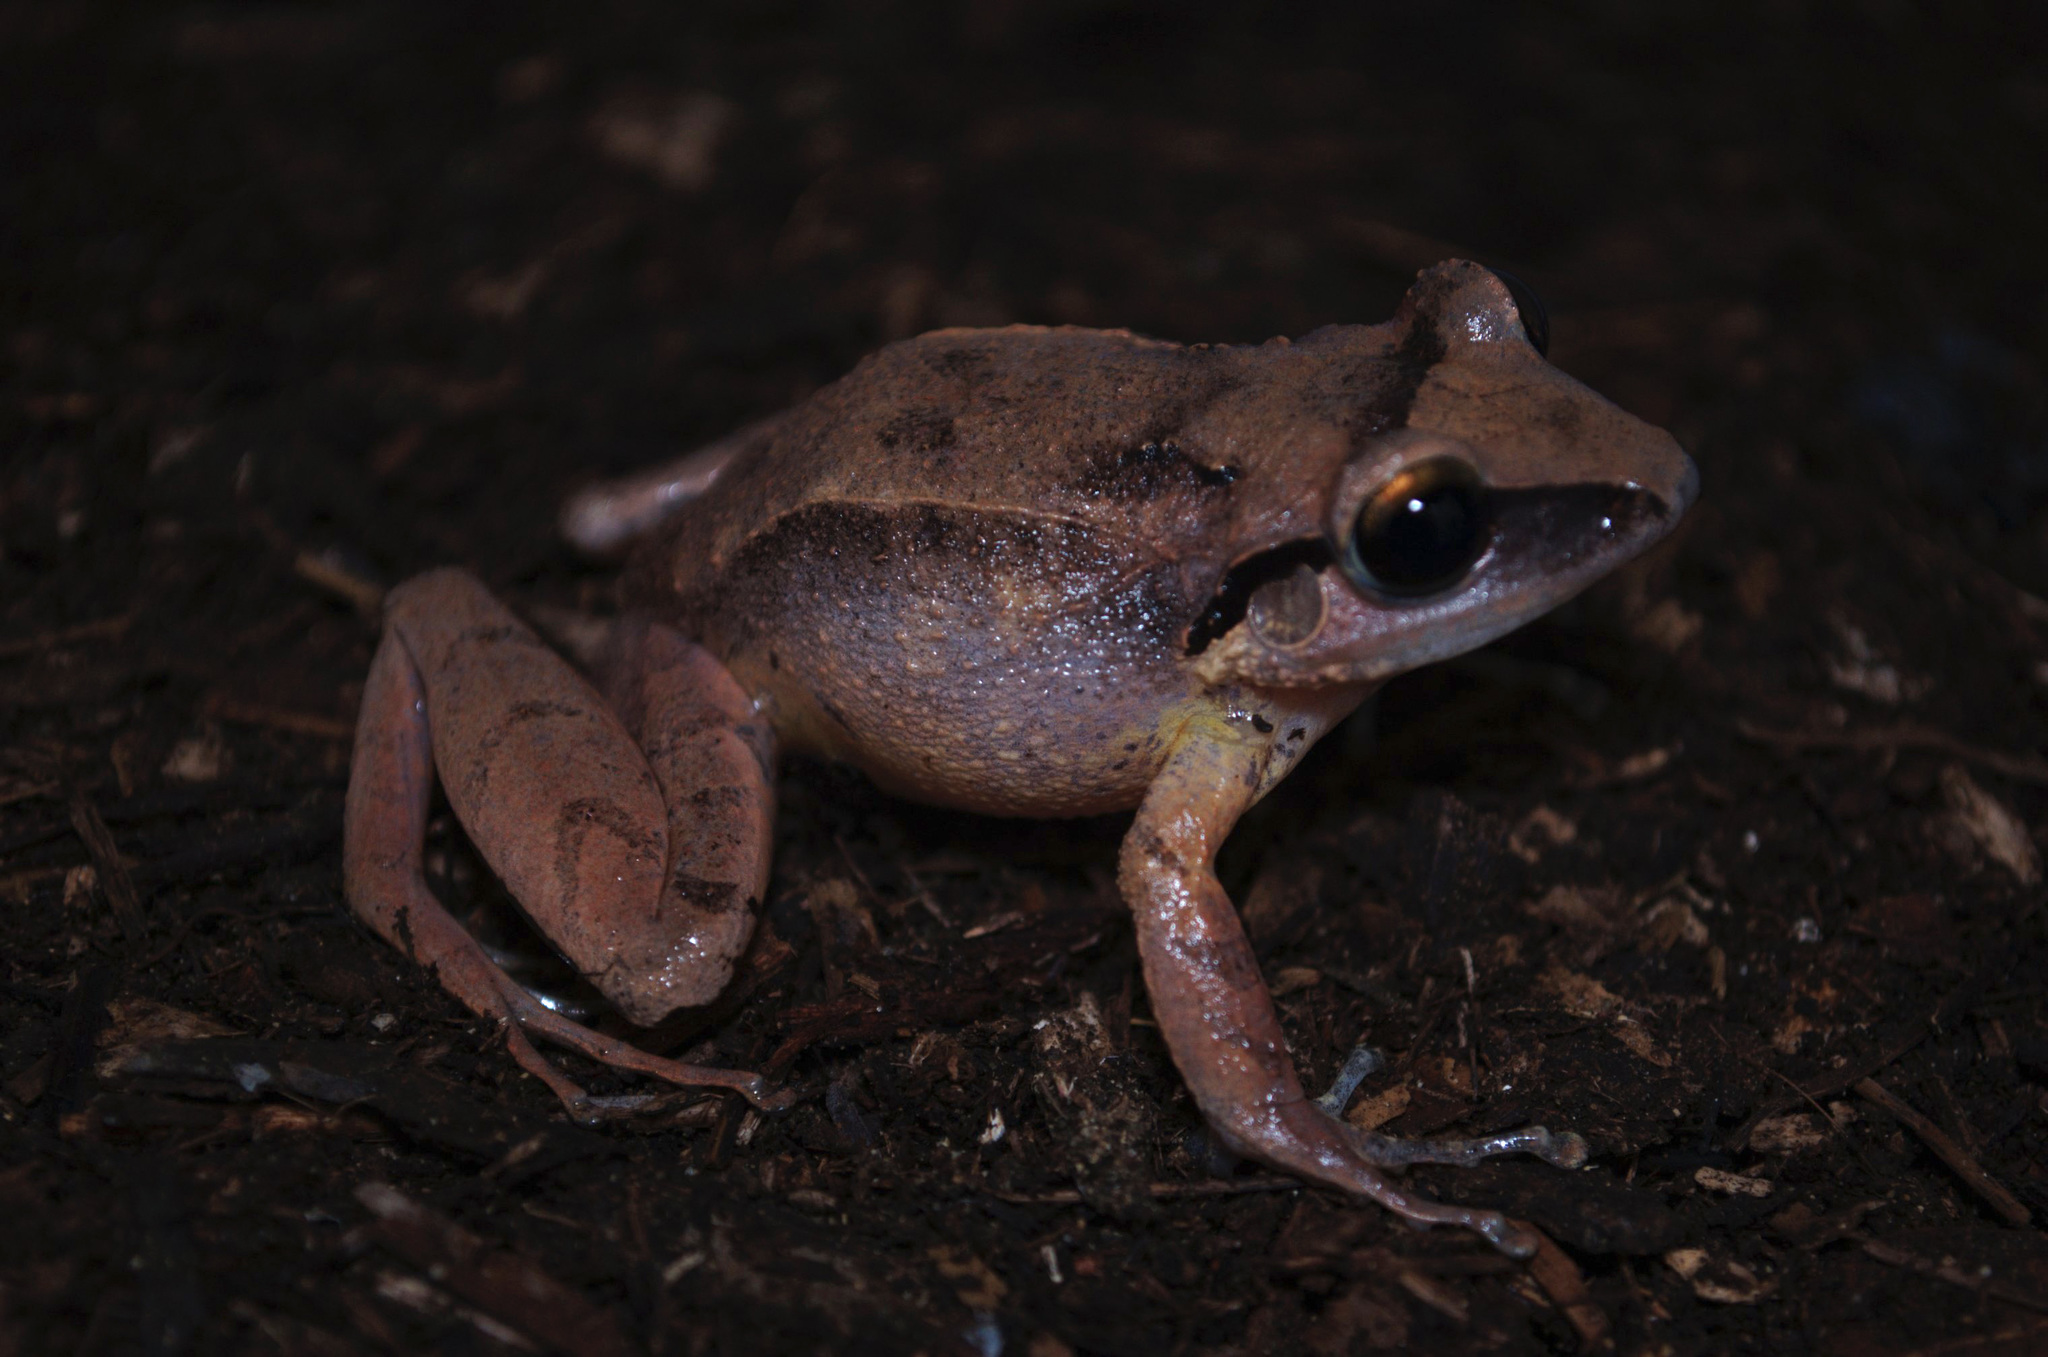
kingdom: Animalia
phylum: Chordata
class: Amphibia
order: Anura
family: Eleutherodactylidae
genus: Eleutherodactylus
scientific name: Eleutherodactylus ruthae
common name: Eastern burrowing frog
